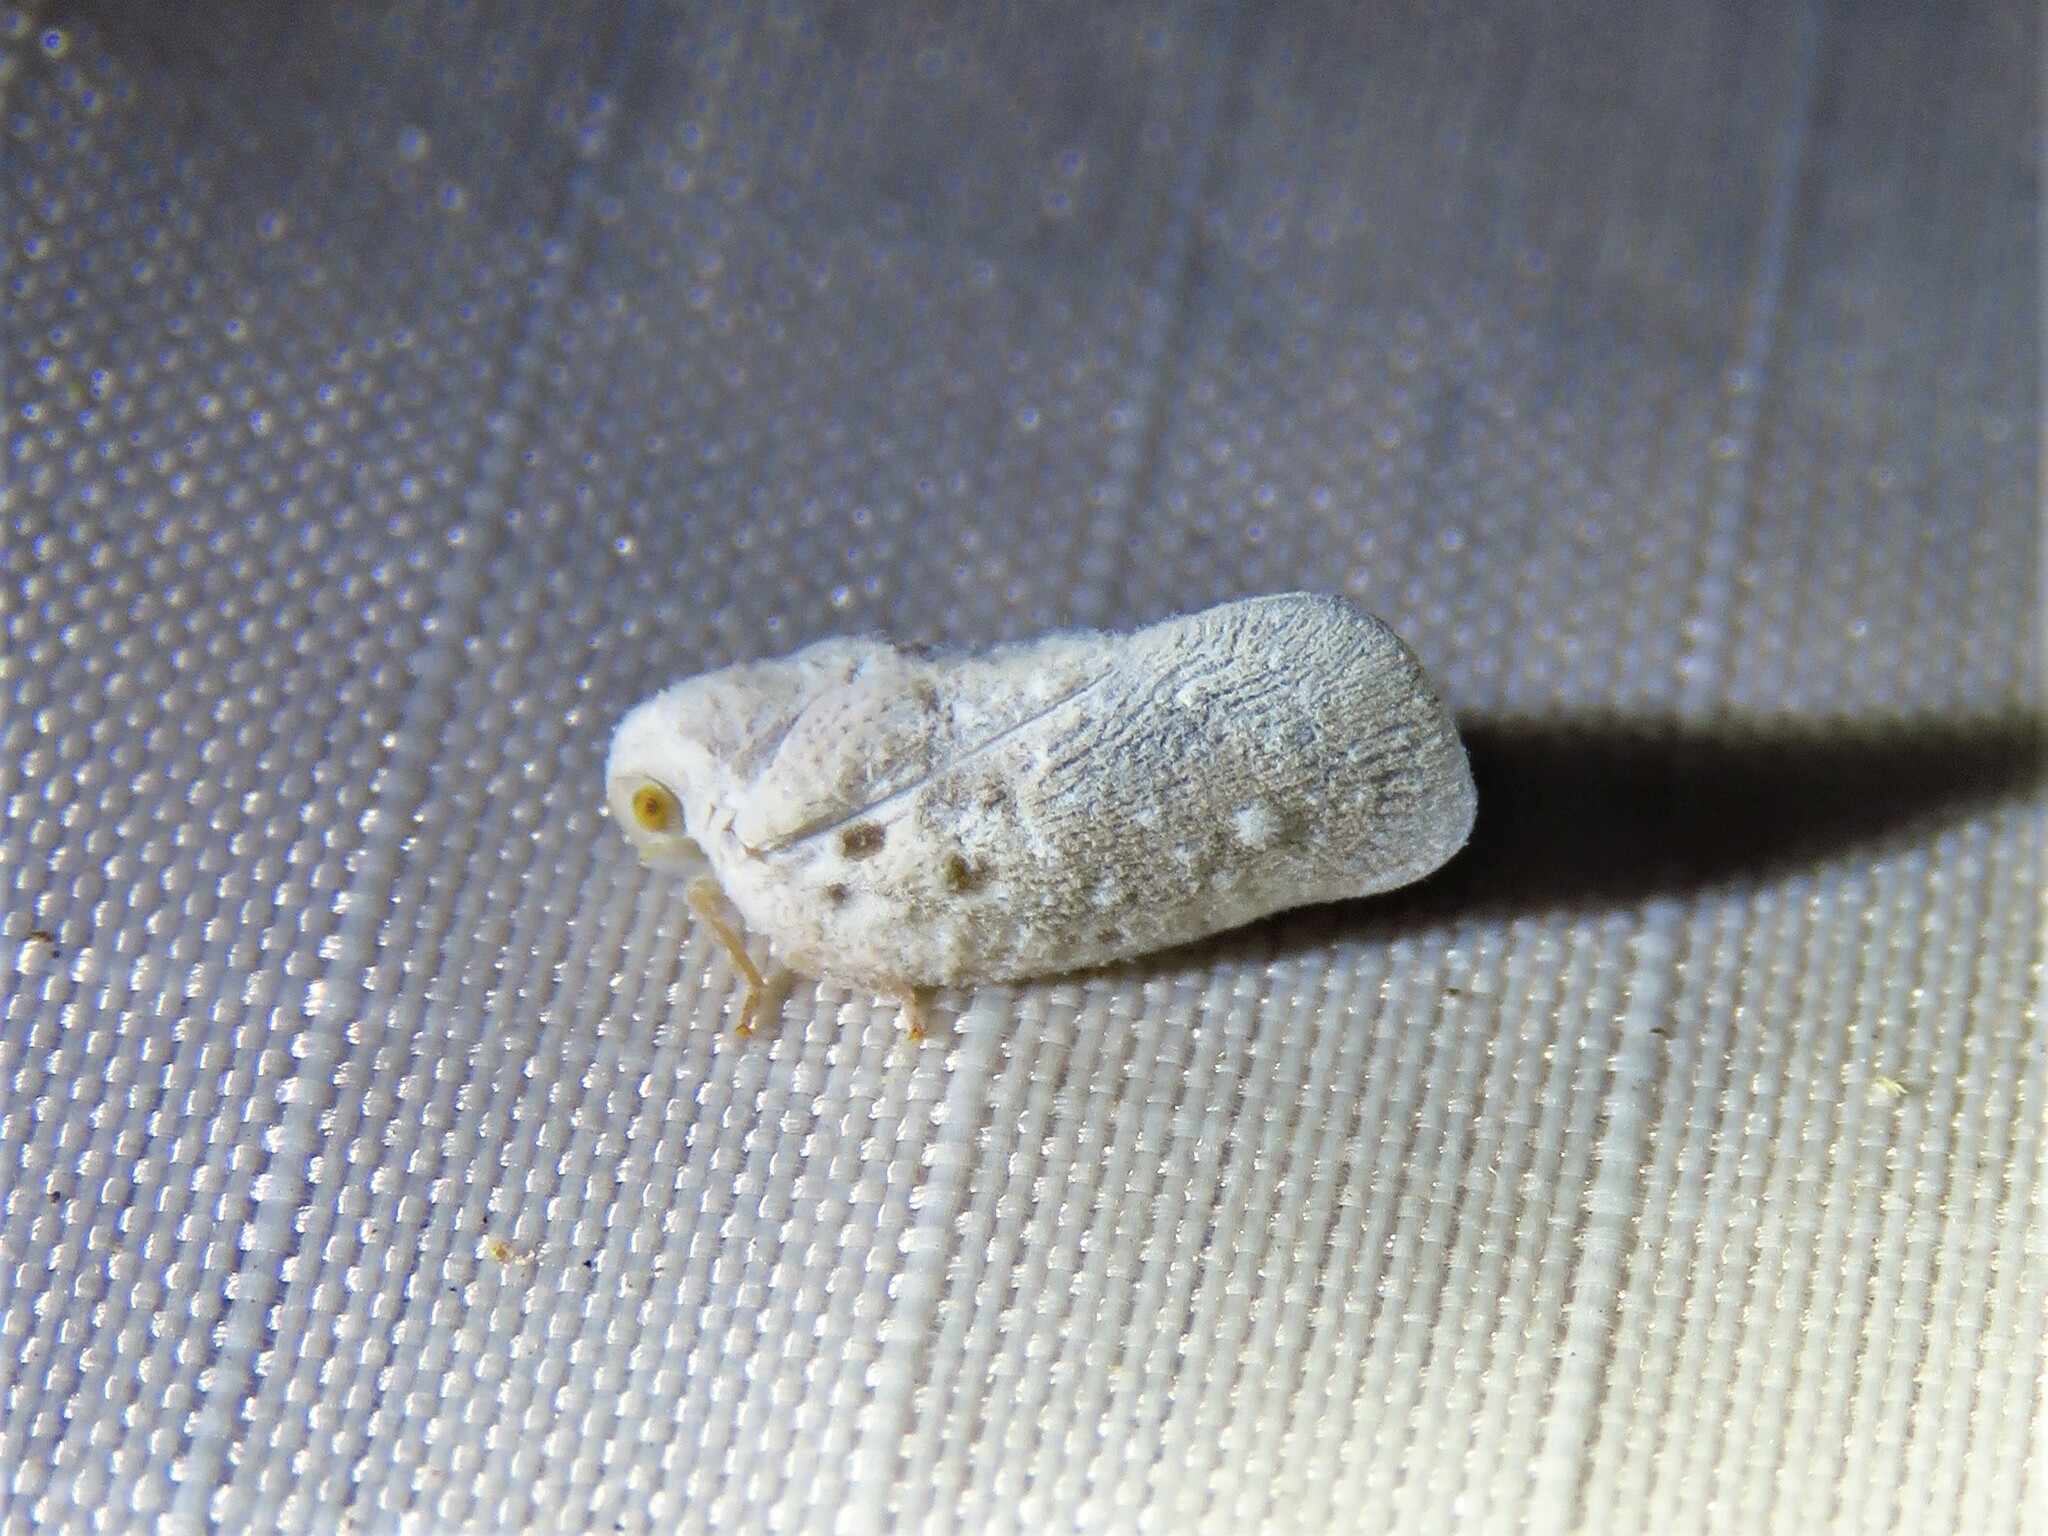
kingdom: Animalia
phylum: Arthropoda
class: Insecta
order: Hemiptera
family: Flatidae
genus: Metcalfa
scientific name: Metcalfa pruinosa
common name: Citrus flatid planthopper
